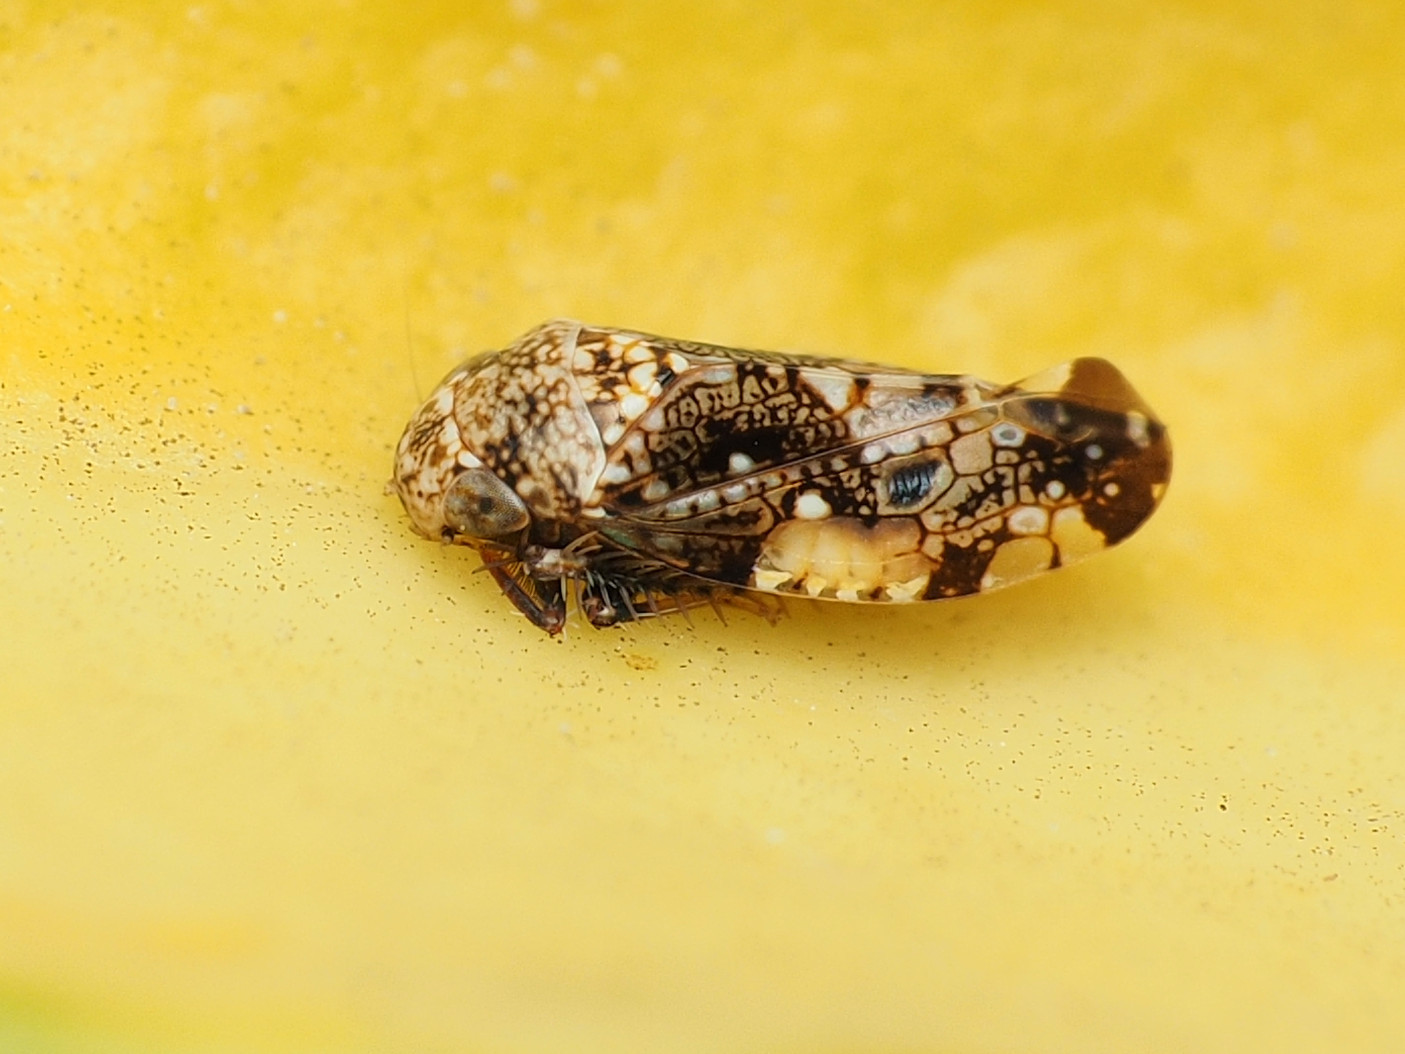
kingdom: Animalia
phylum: Arthropoda
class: Insecta
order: Hemiptera
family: Cicadellidae
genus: Penthimiola
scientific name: Penthimiola bella
